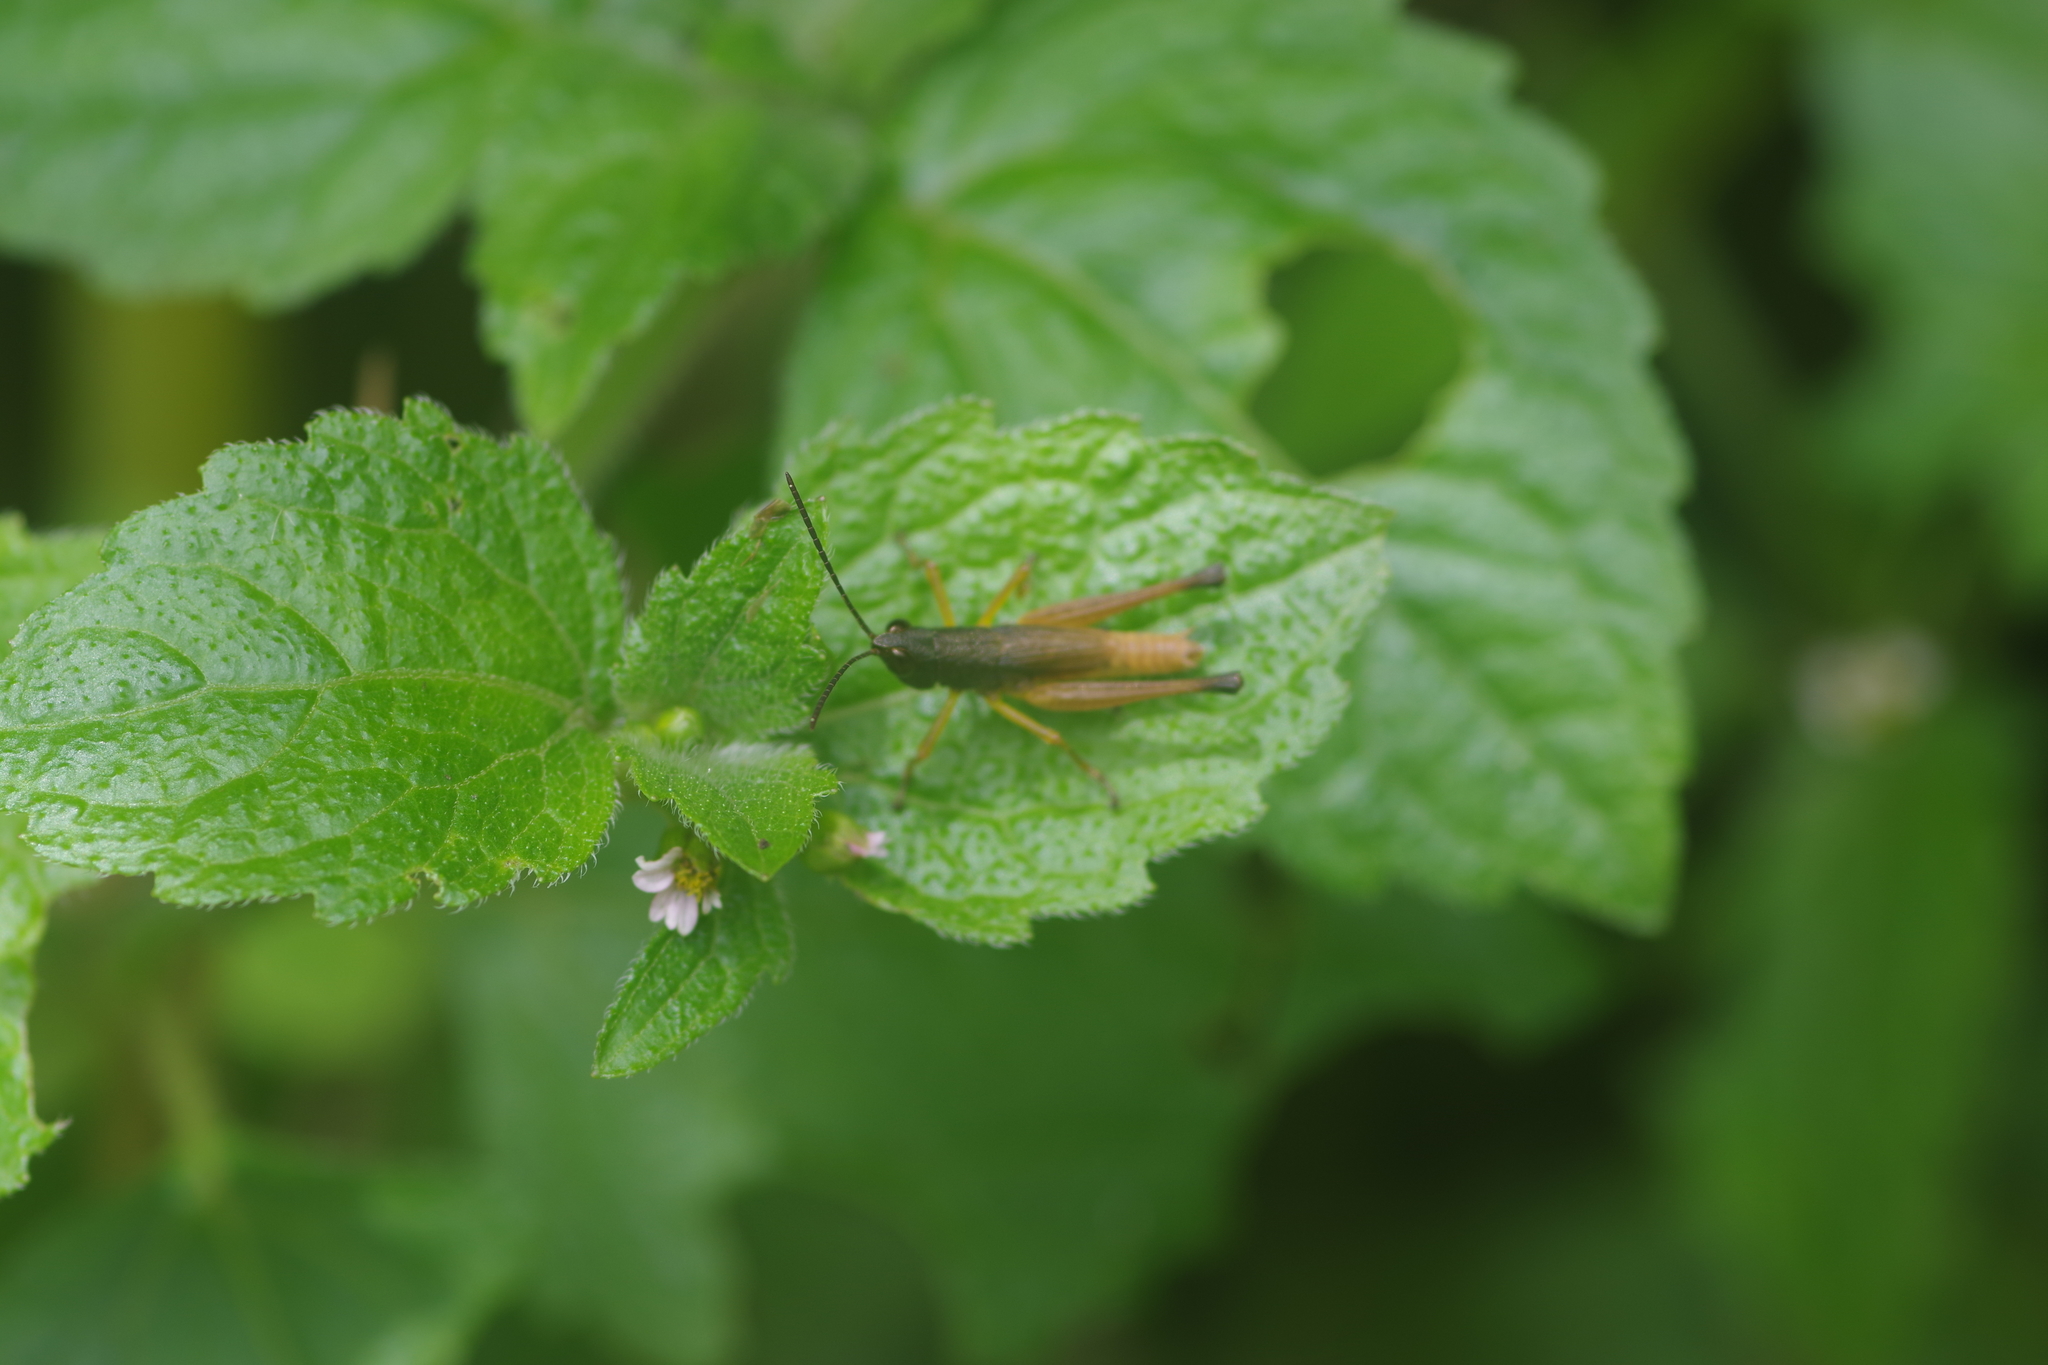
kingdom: Animalia
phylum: Arthropoda
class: Insecta
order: Orthoptera
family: Acrididae
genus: Silvitettix
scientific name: Silvitettix communis
